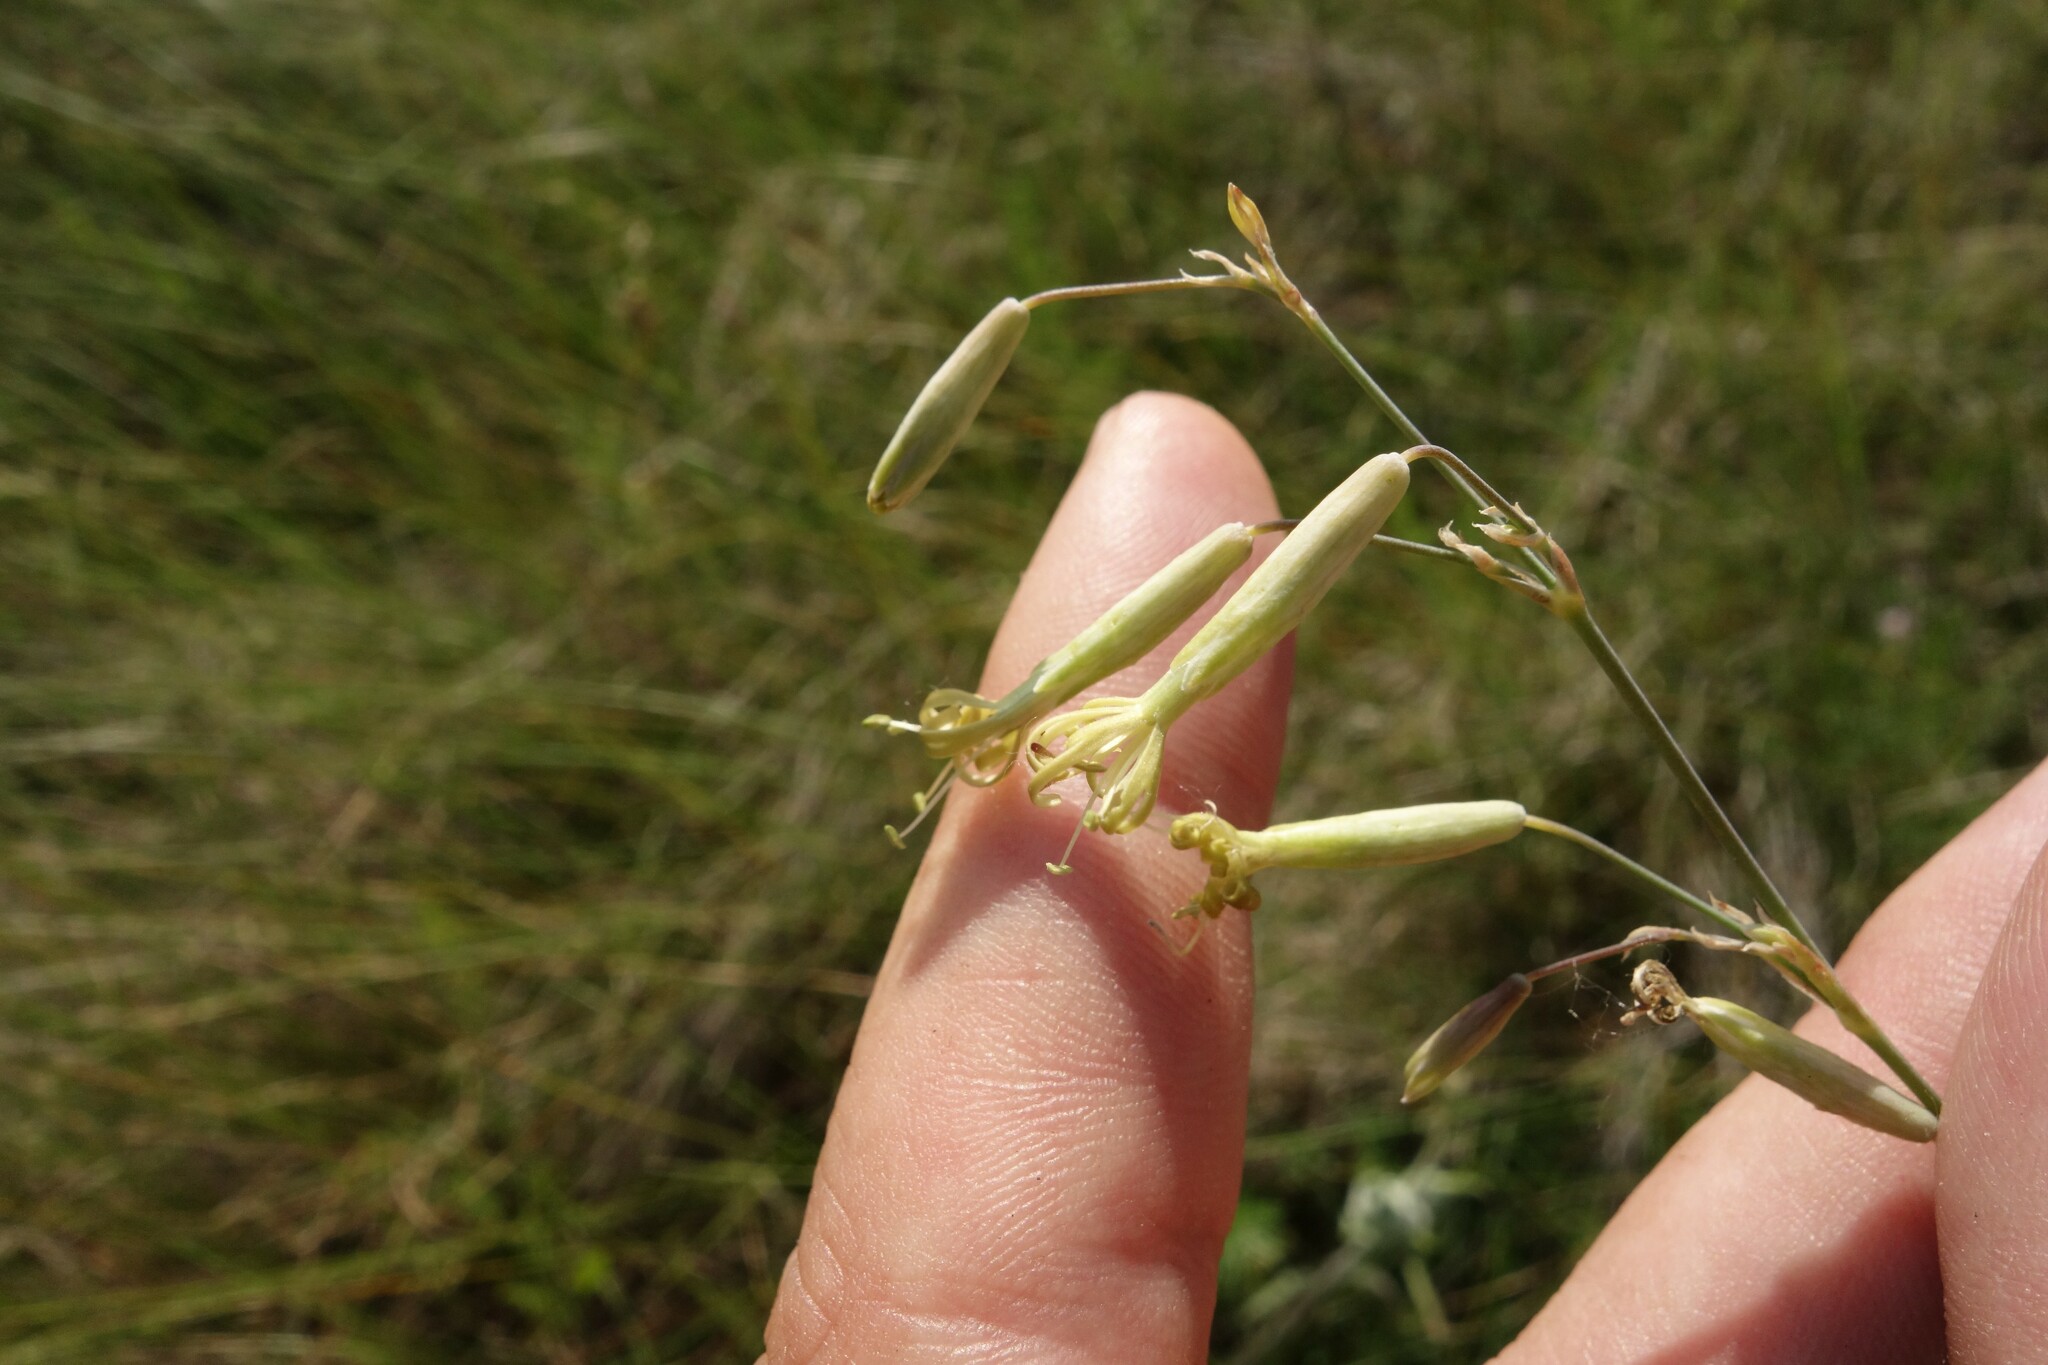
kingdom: Plantae
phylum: Tracheophyta
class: Magnoliopsida
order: Caryophyllales
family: Caryophyllaceae
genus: Silene
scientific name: Silene chlorantha
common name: Yellowgreen catchfly
